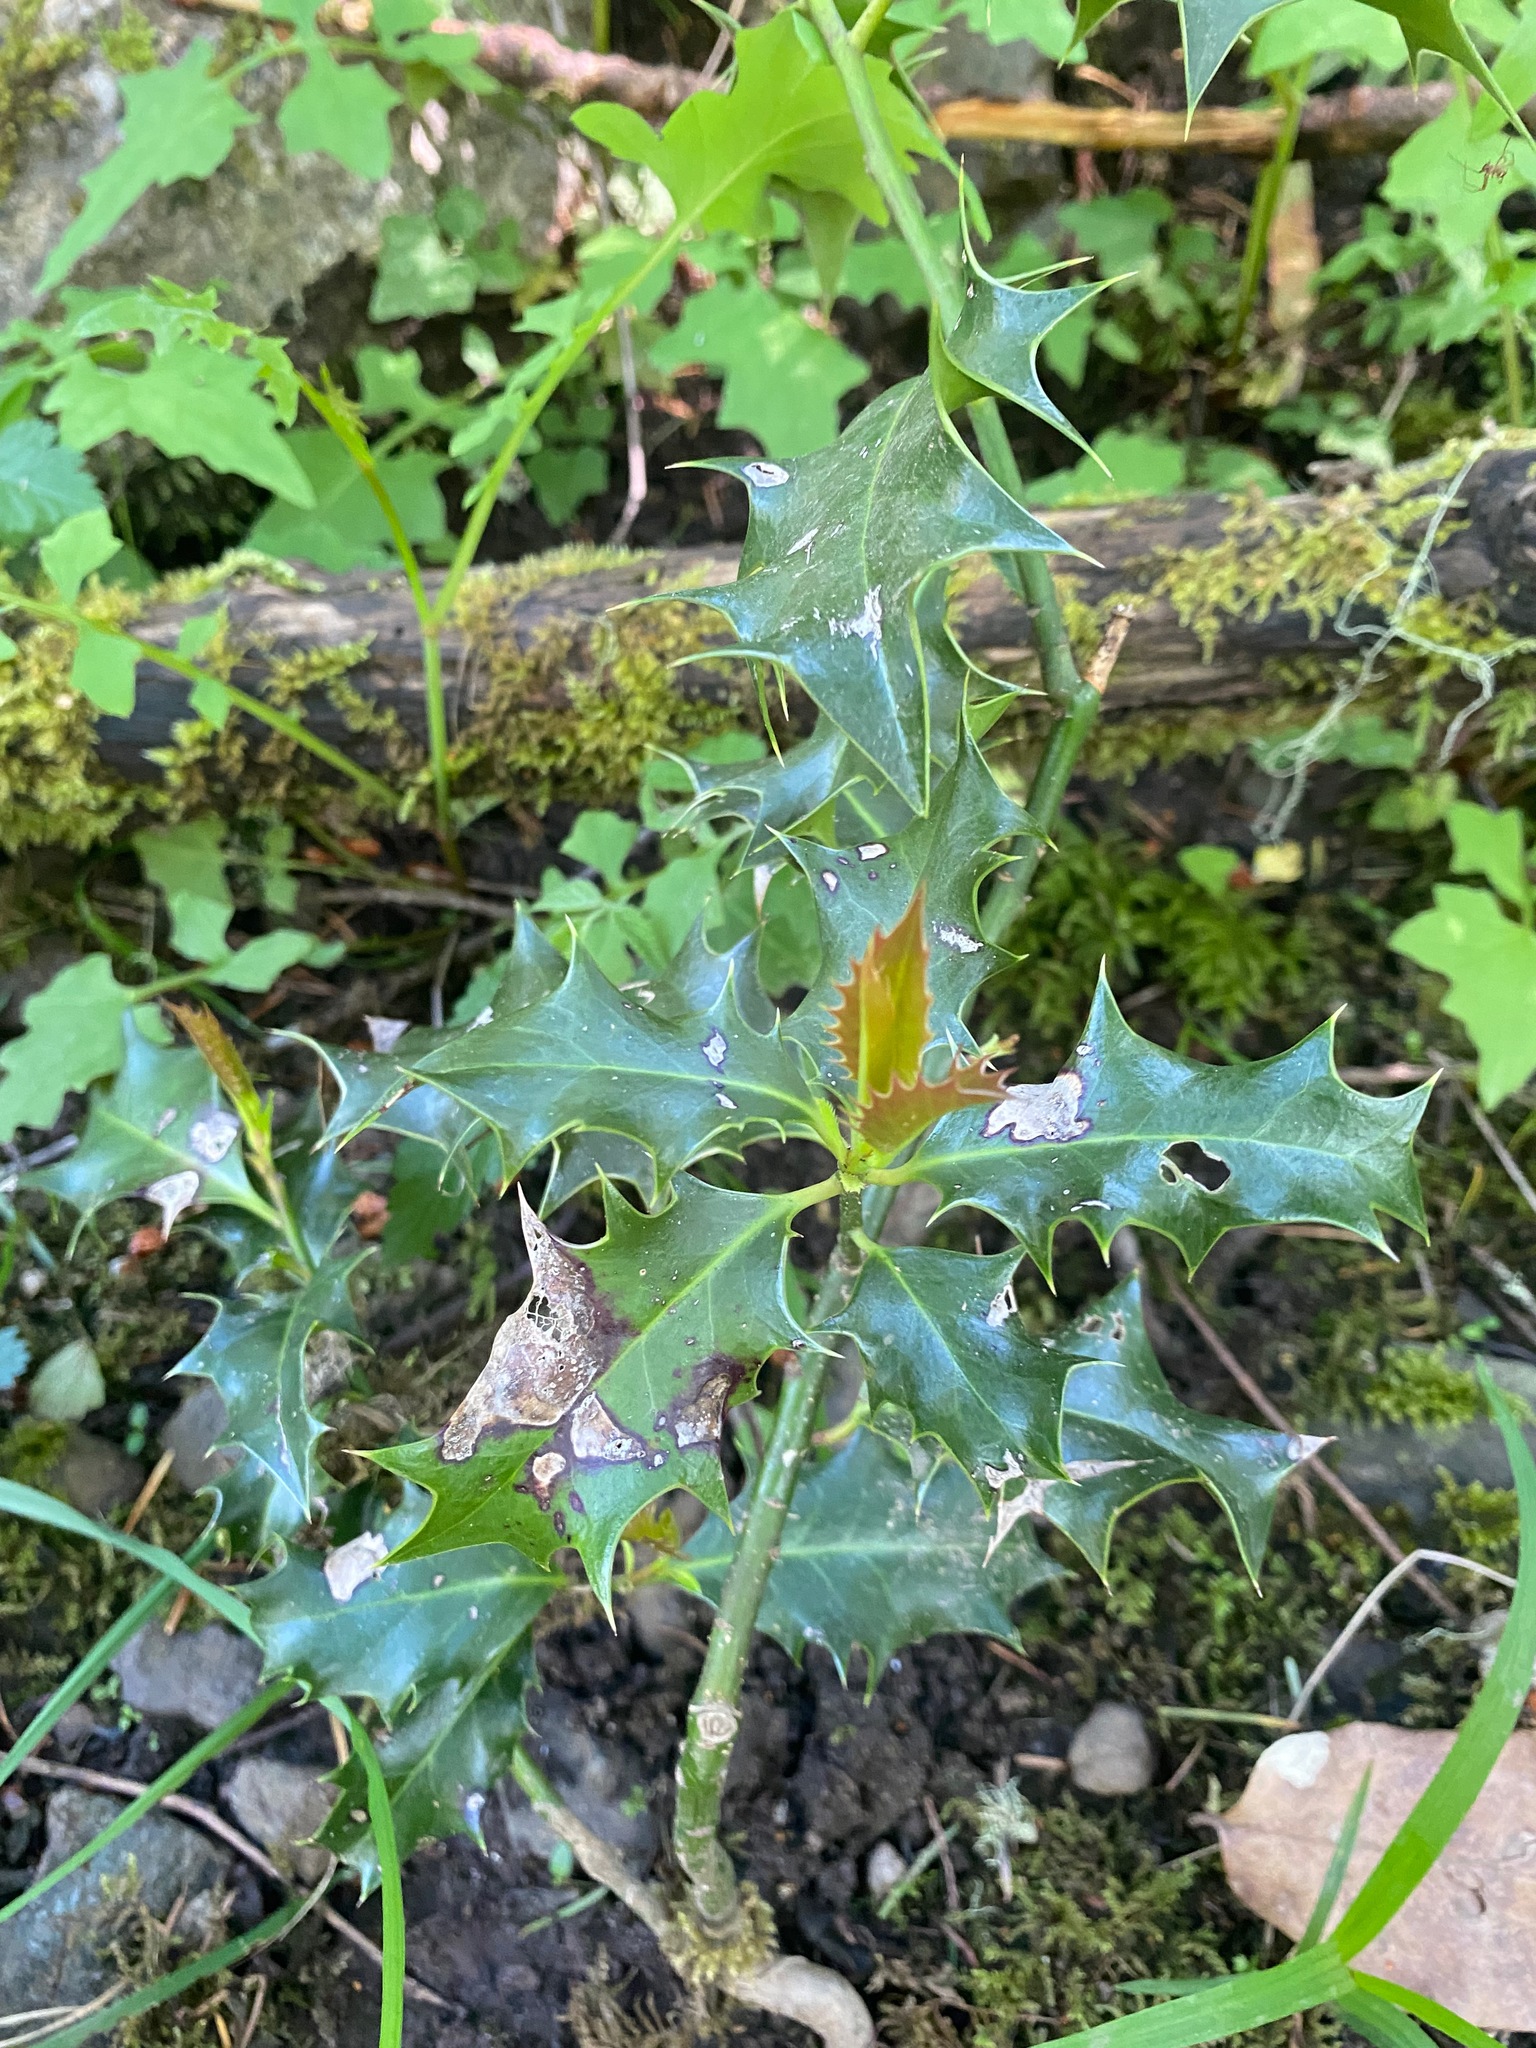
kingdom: Plantae
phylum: Tracheophyta
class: Magnoliopsida
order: Aquifoliales
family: Aquifoliaceae
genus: Ilex
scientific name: Ilex aquifolium
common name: English holly
